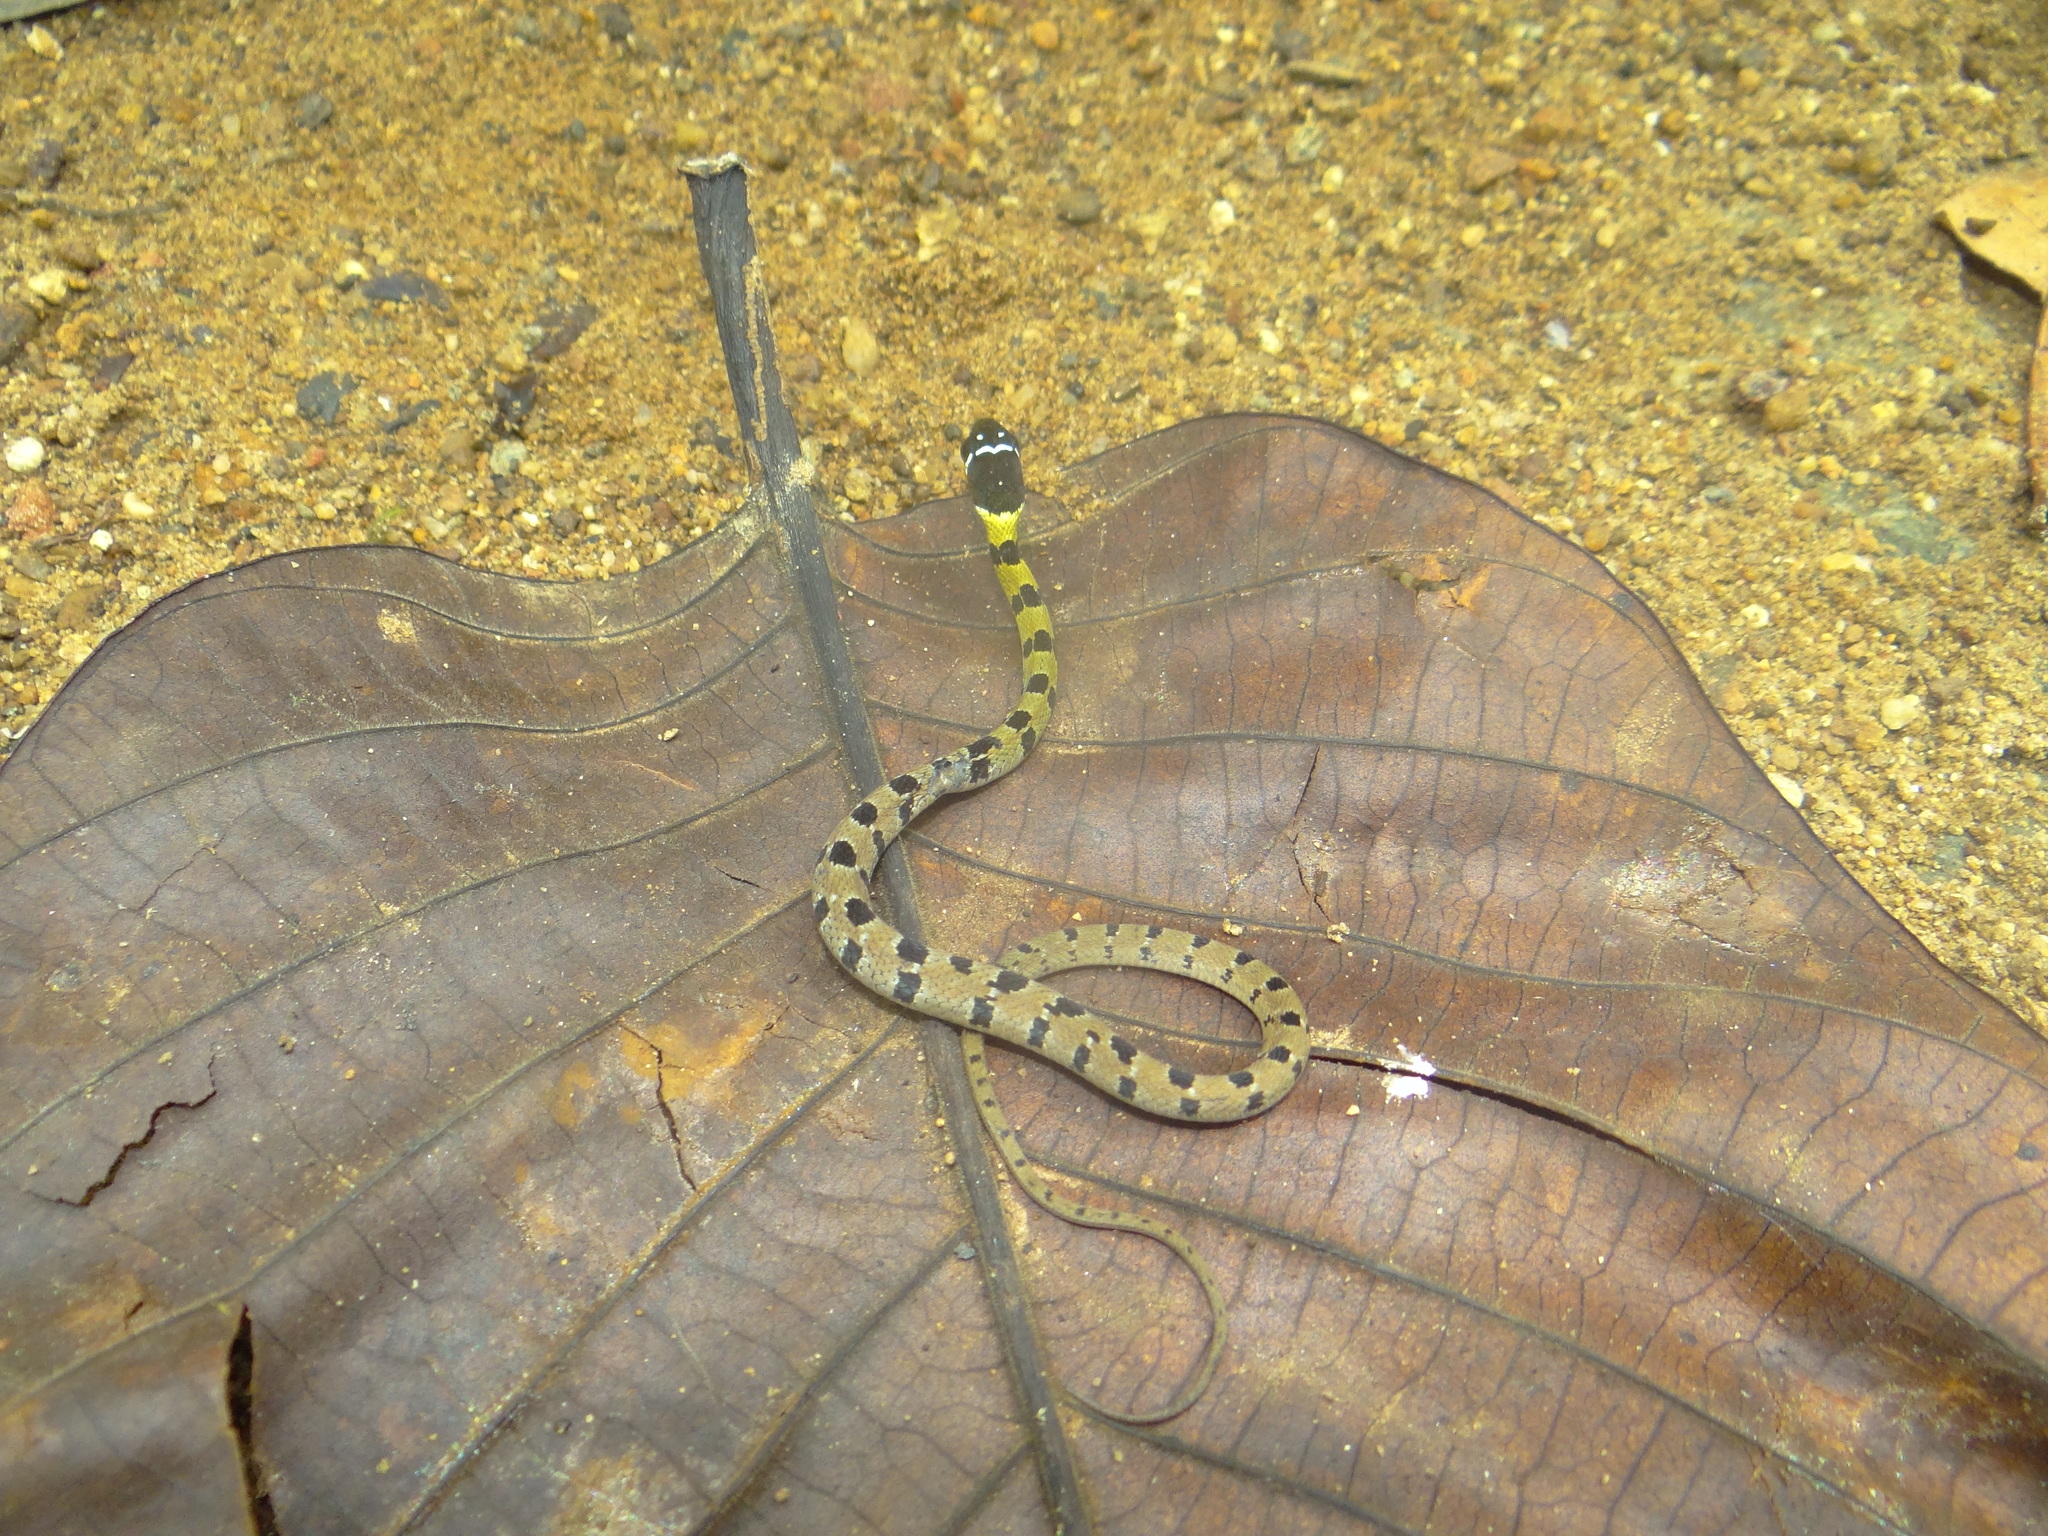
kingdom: Animalia
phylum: Chordata
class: Squamata
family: Colubridae
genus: Hebius
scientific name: Hebius monticola
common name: Wynad keelback
